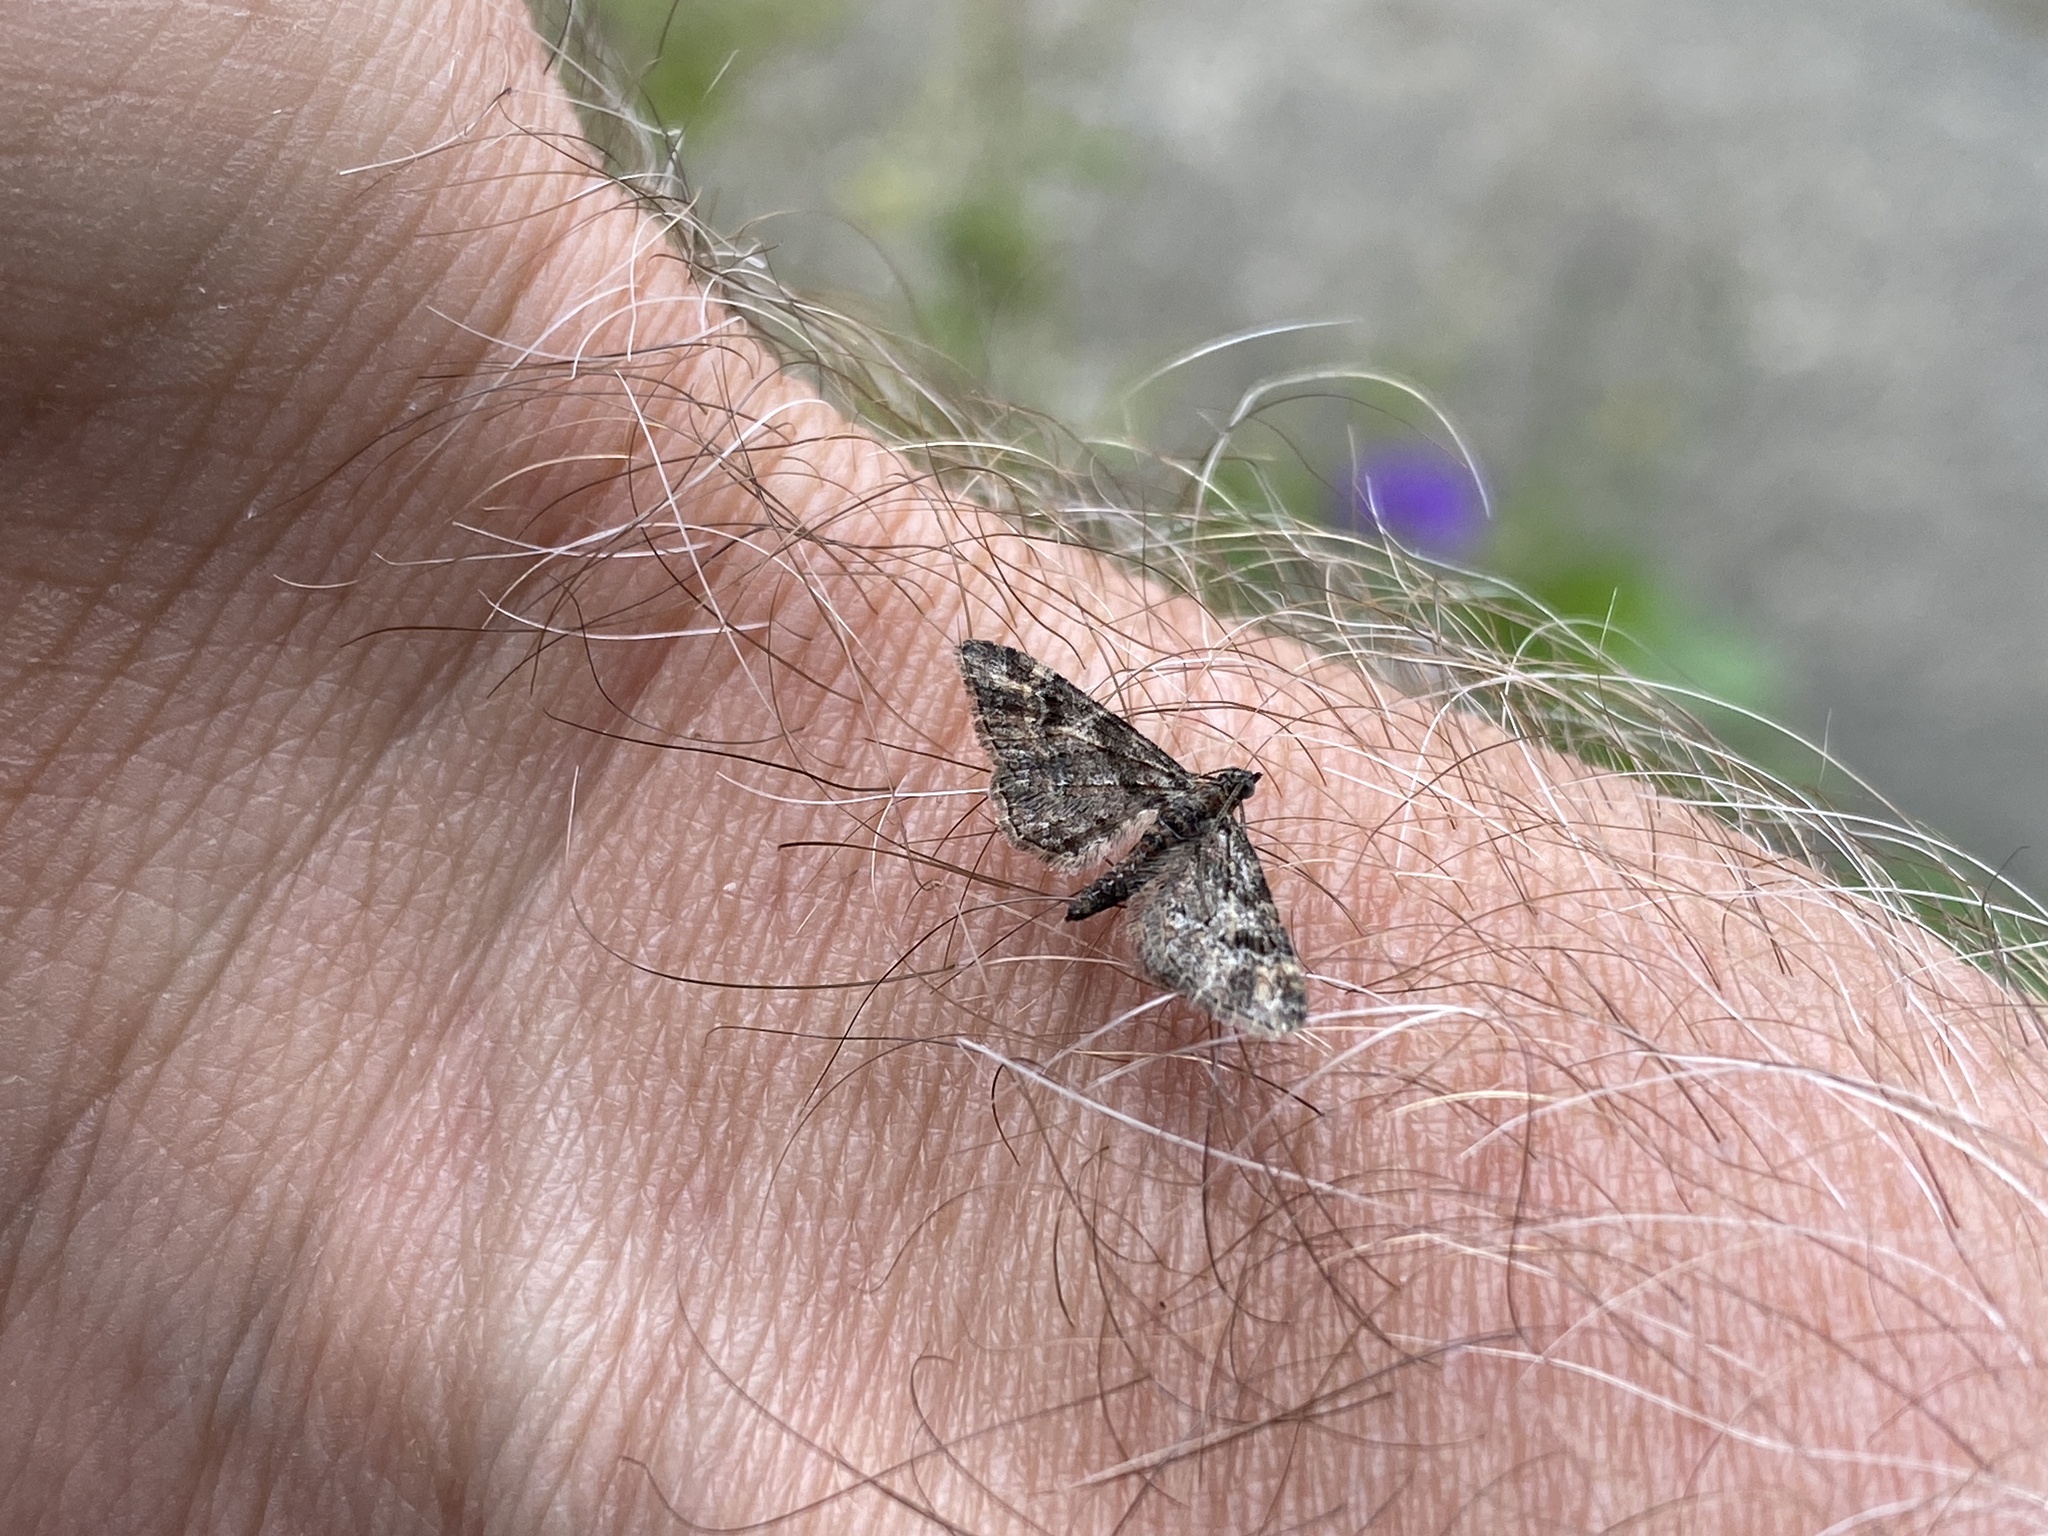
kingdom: Animalia
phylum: Arthropoda
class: Insecta
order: Lepidoptera
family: Geometridae
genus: Gymnoscelis
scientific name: Gymnoscelis rufifasciata
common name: Double-striped pug
